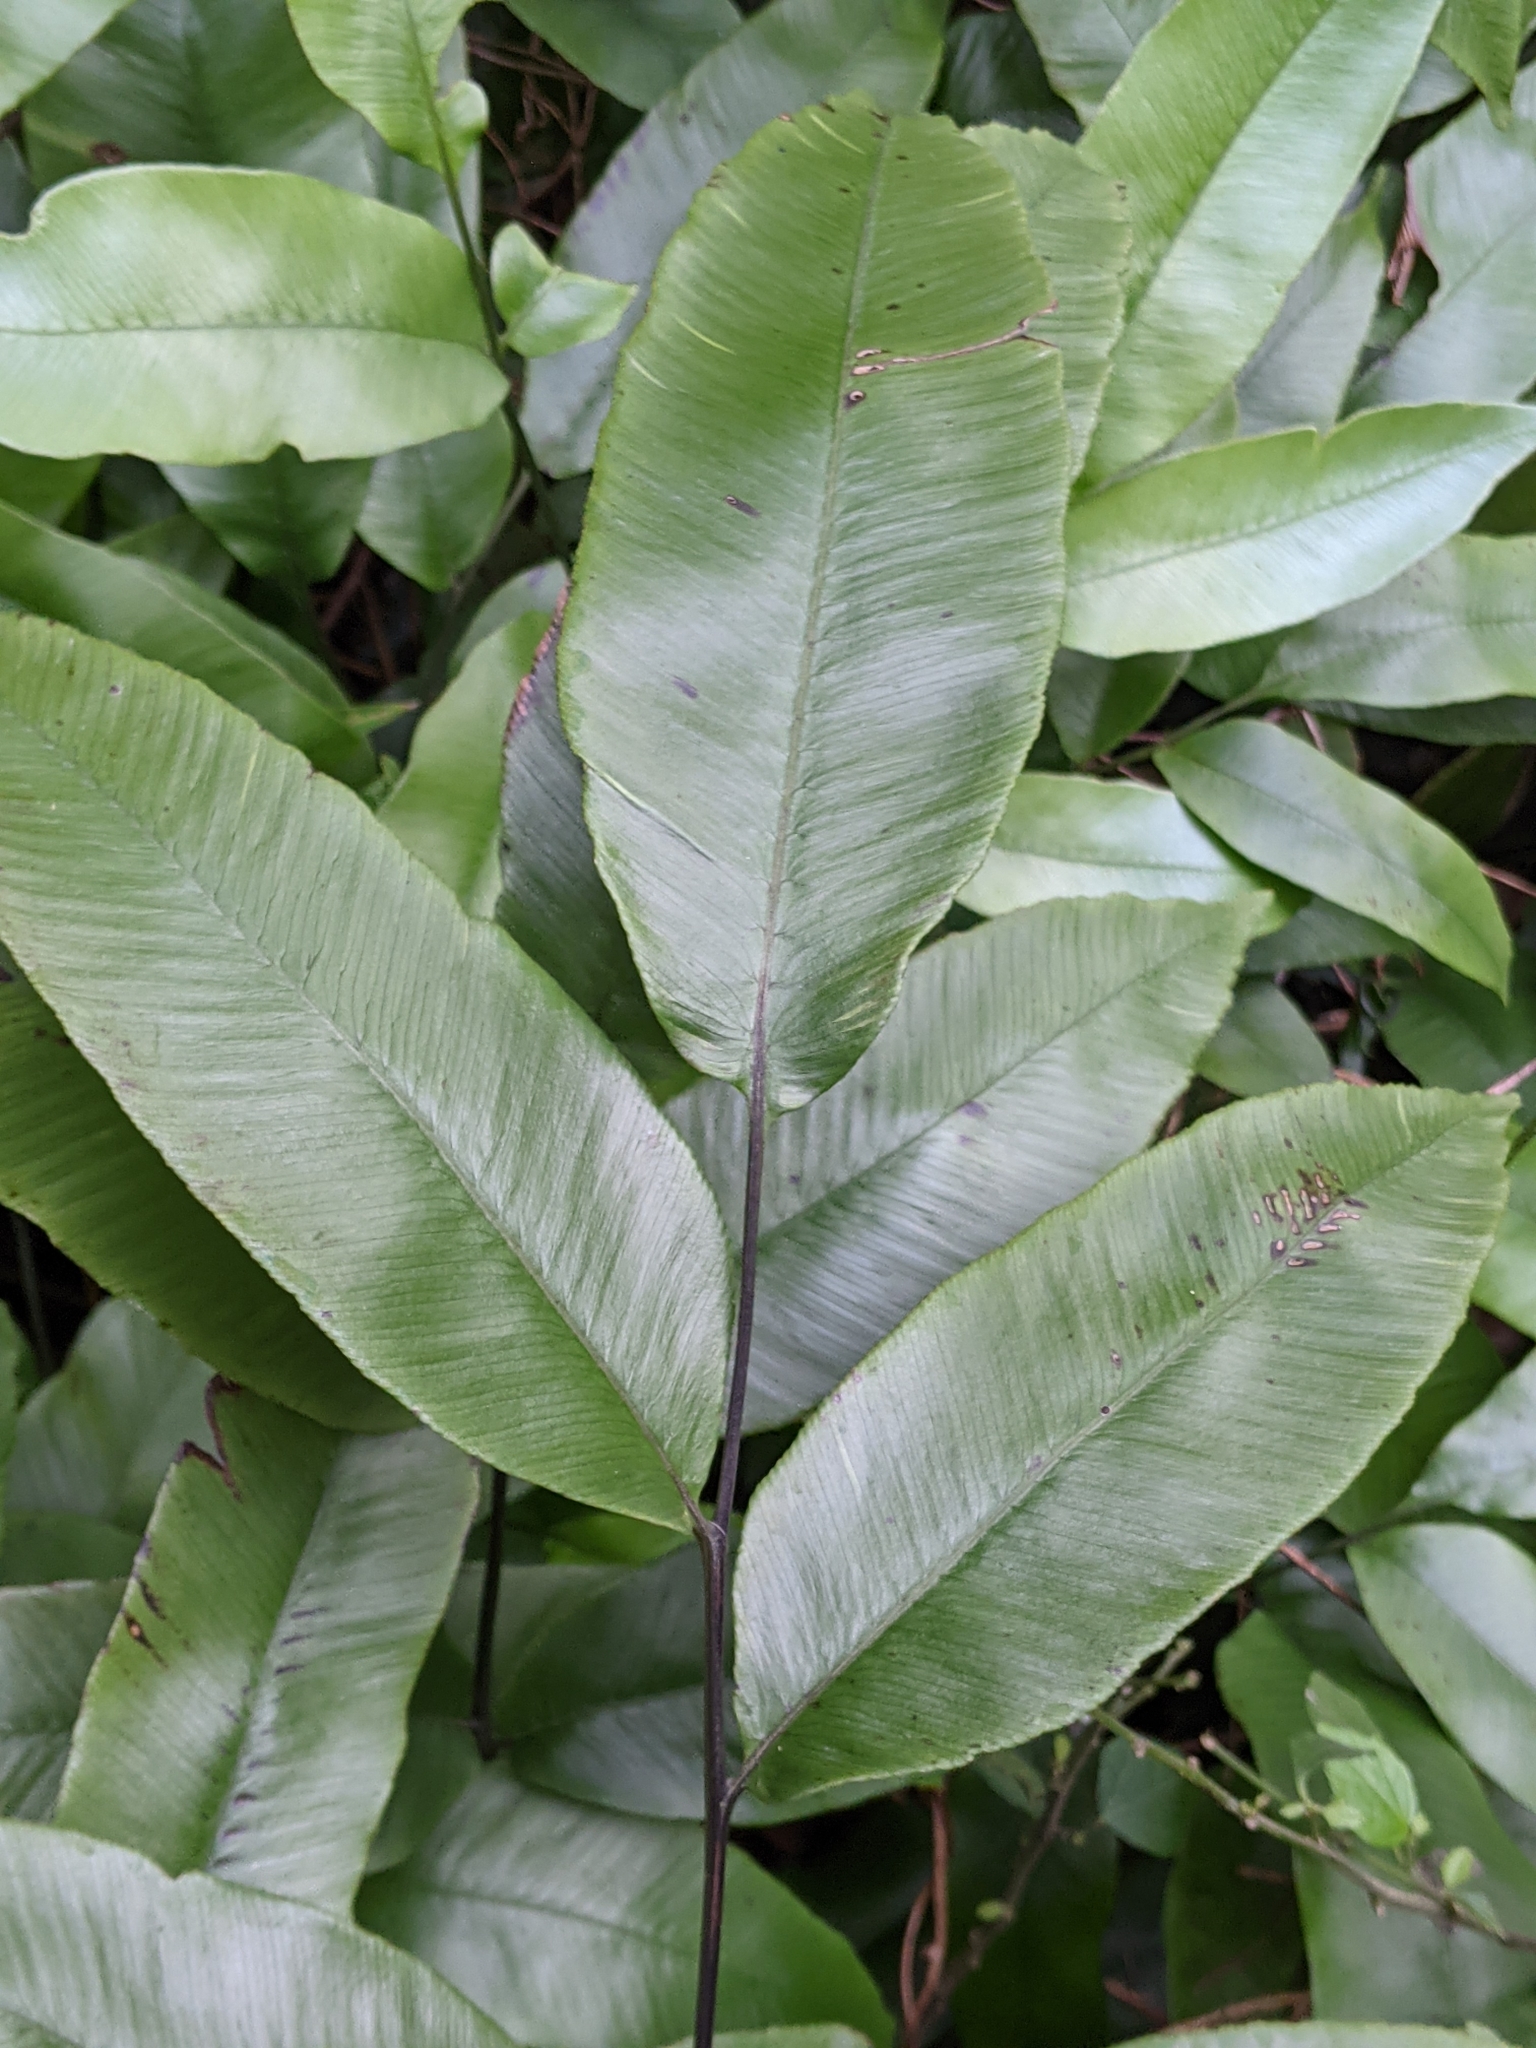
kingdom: Plantae
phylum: Tracheophyta
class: Polypodiopsida
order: Polypodiales
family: Athyriaceae
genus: Diplazium
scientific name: Diplazium lineolatum
